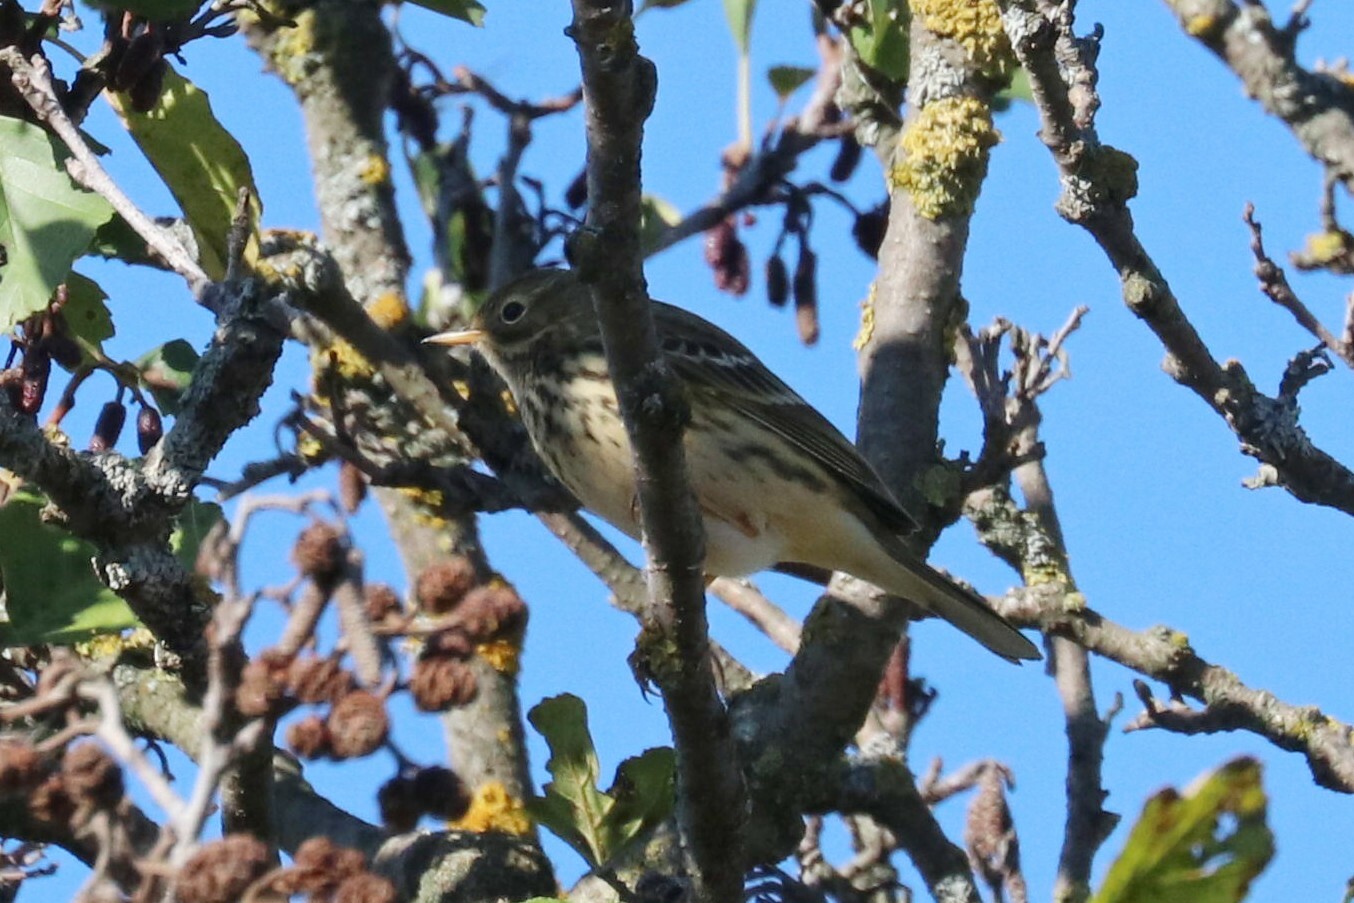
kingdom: Animalia
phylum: Chordata
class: Aves
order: Passeriformes
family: Motacillidae
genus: Anthus
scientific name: Anthus pratensis
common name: Meadow pipit
